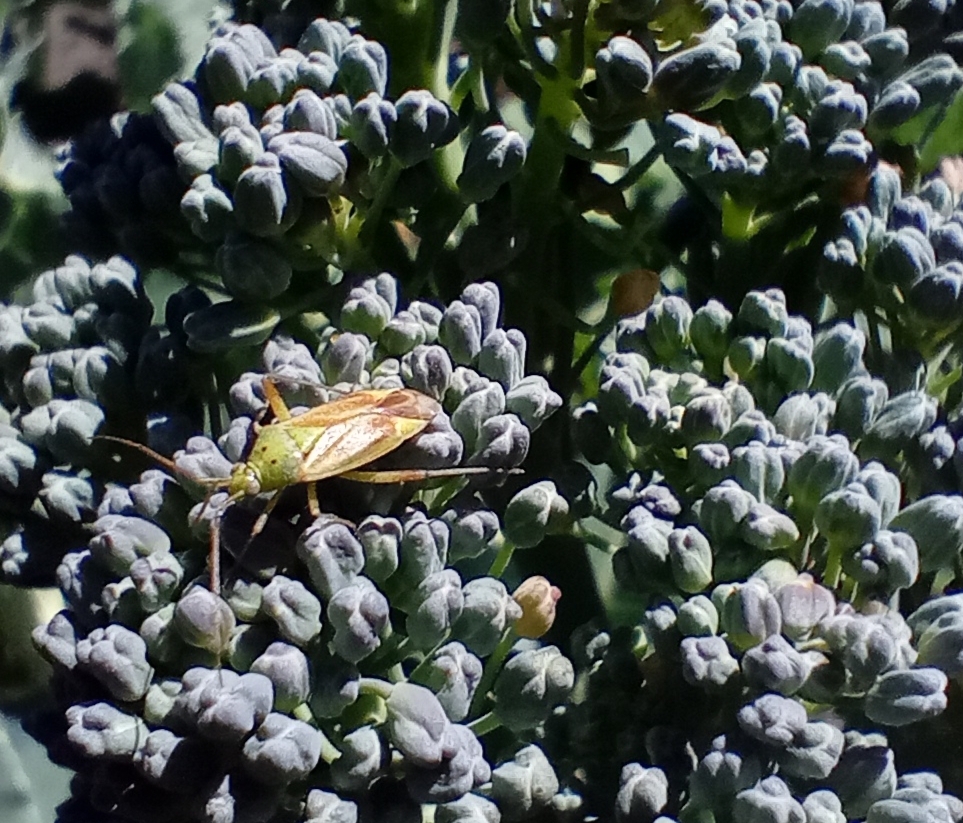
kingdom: Animalia
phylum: Arthropoda
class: Insecta
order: Hemiptera
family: Miridae
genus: Closterotomus
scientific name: Closterotomus norvegicus
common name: Plant bug
